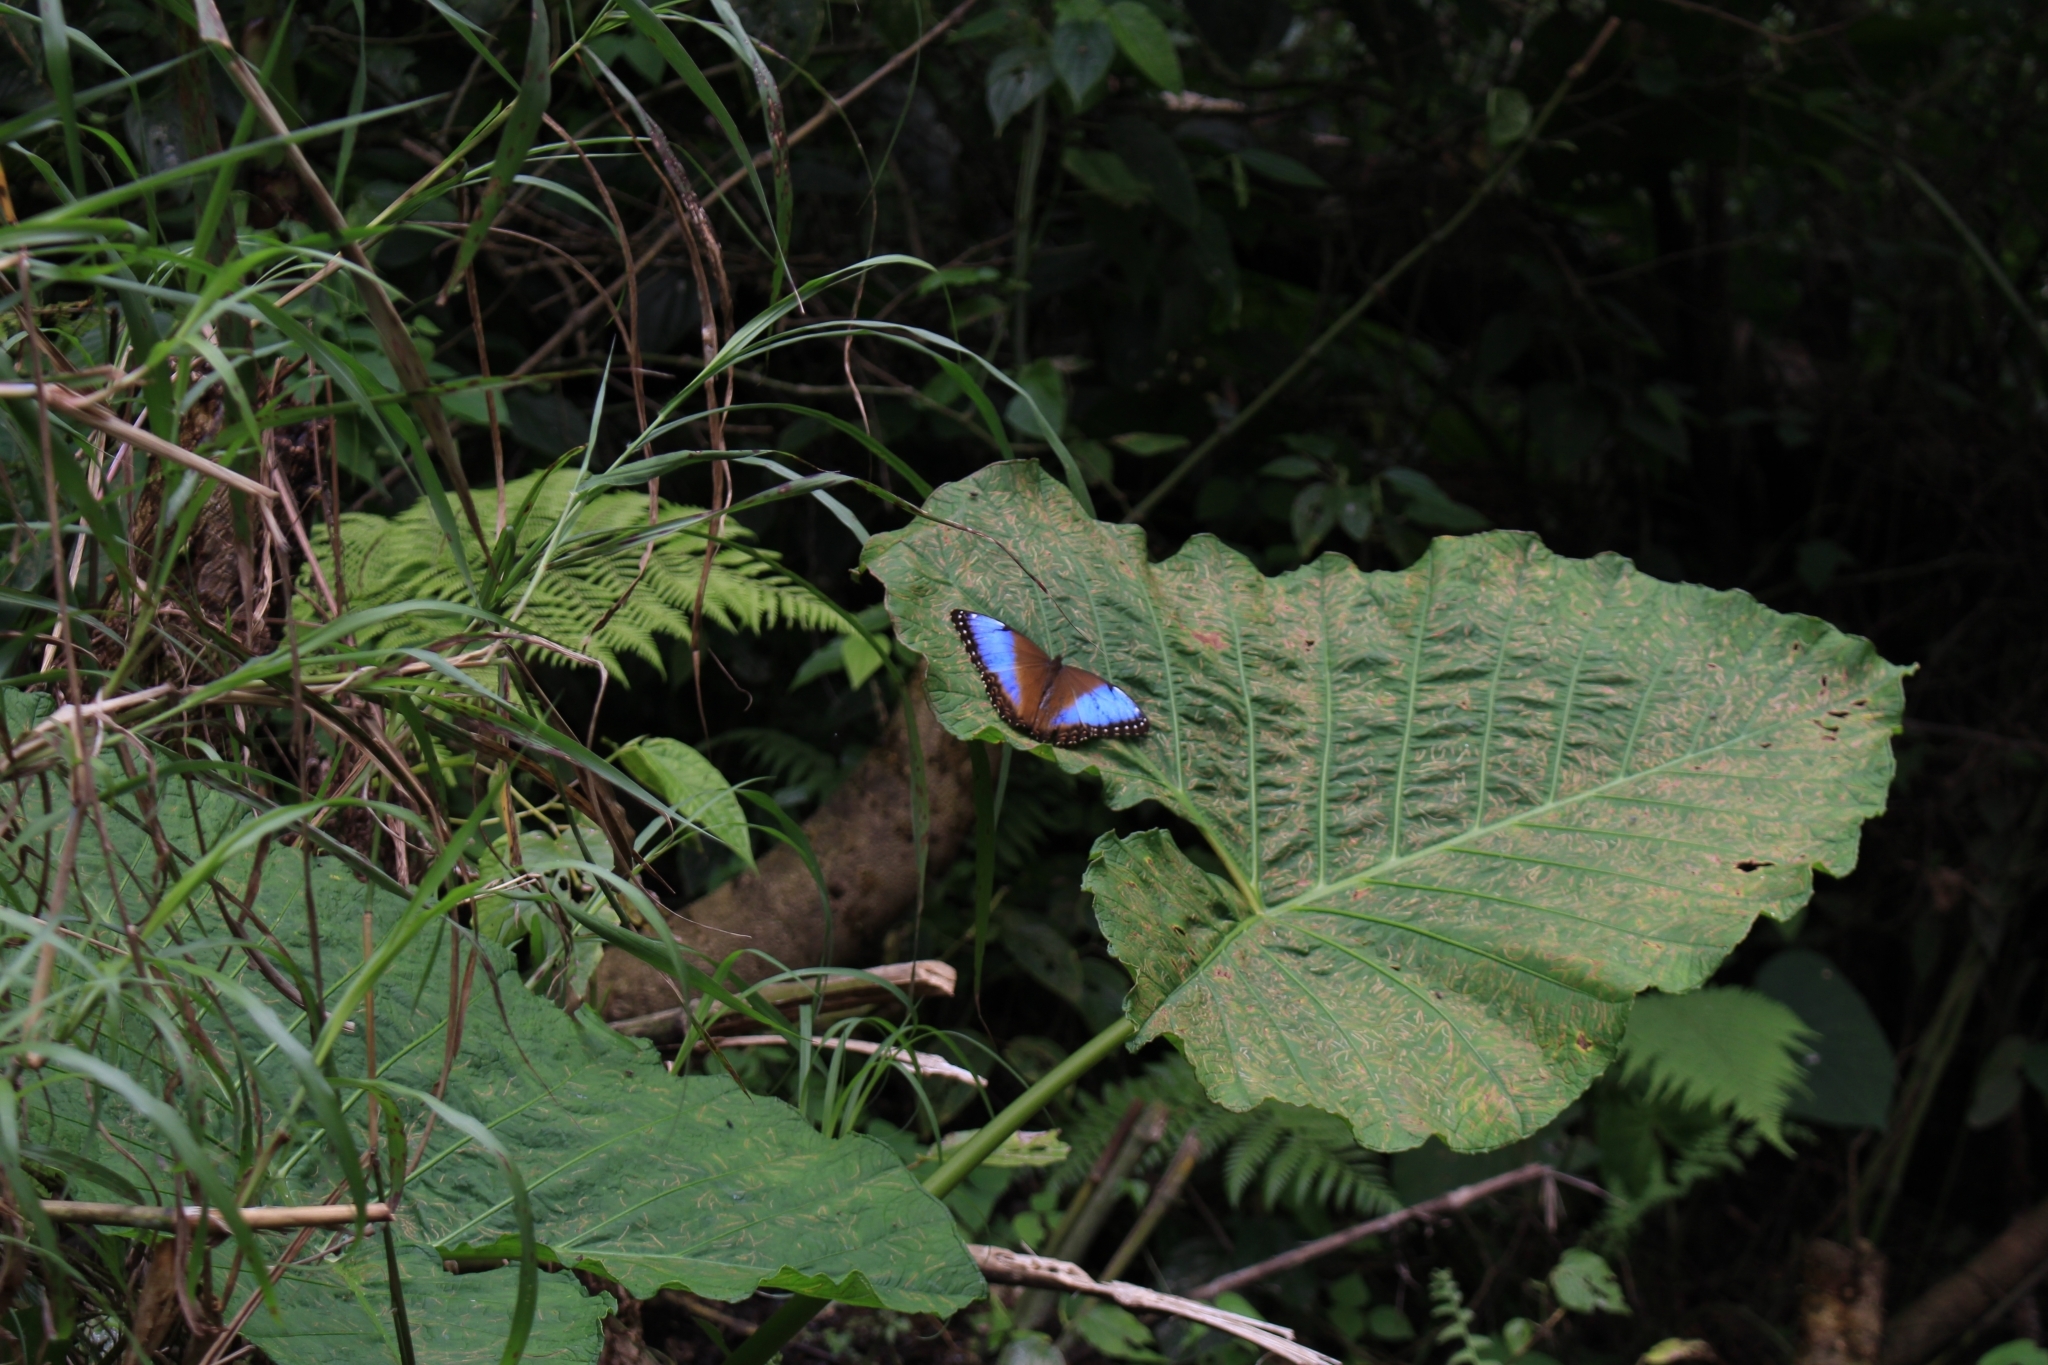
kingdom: Animalia
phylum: Arthropoda
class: Insecta
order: Lepidoptera
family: Nymphalidae
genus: Morpho
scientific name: Morpho helenor
